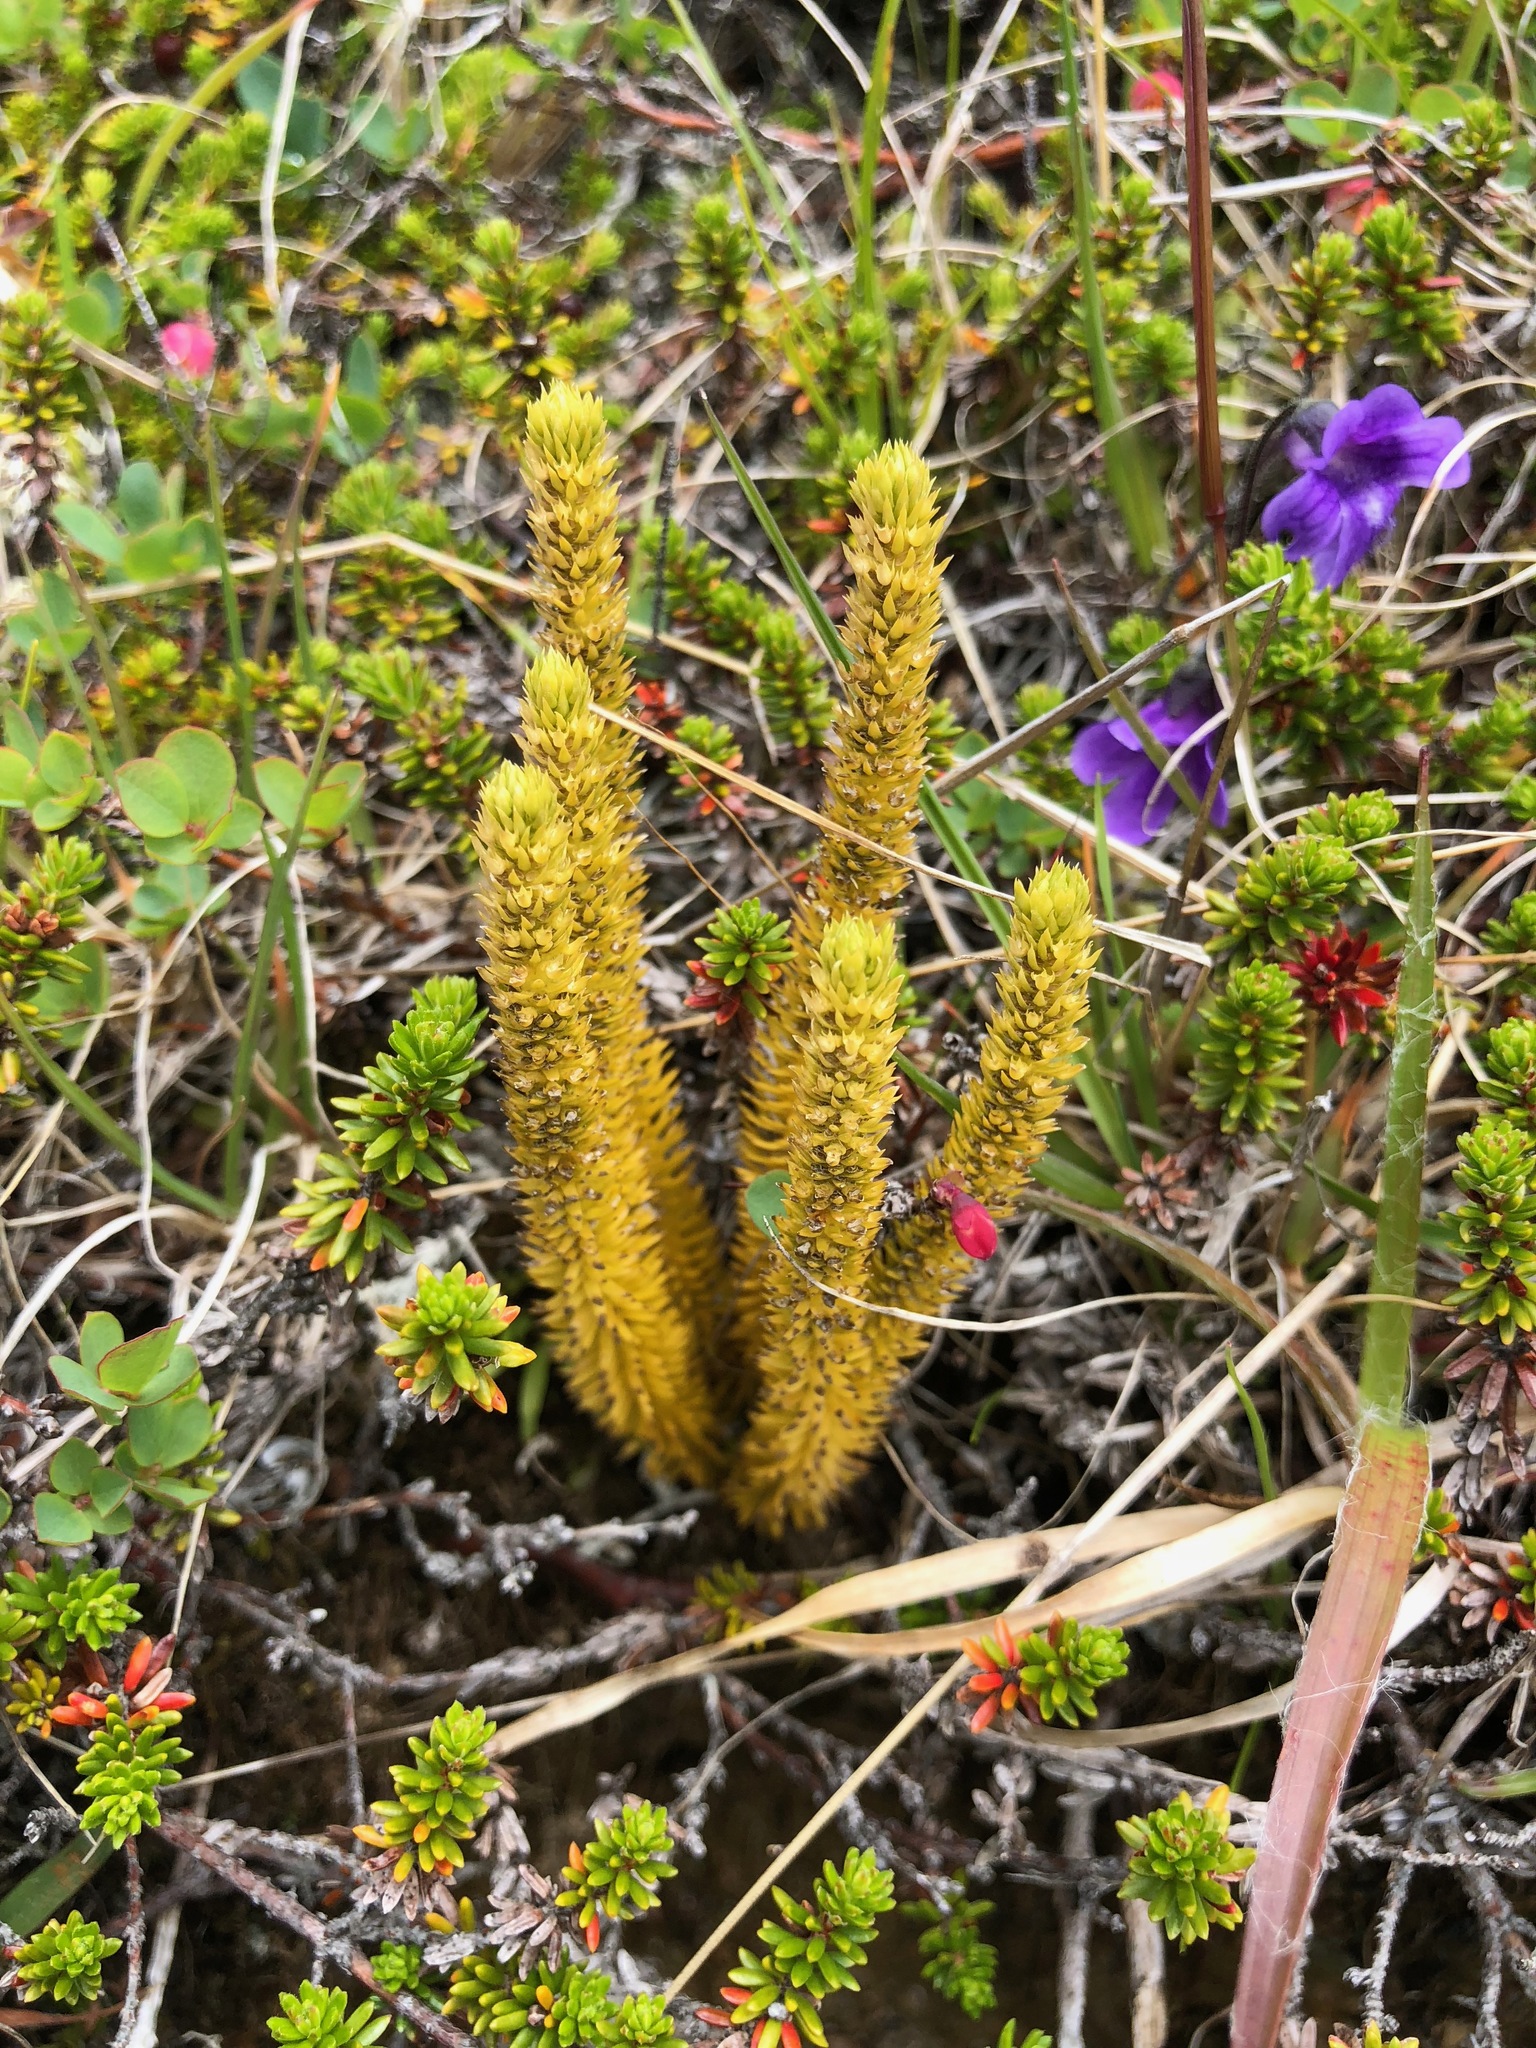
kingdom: Plantae
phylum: Tracheophyta
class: Lycopodiopsida
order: Lycopodiales
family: Lycopodiaceae
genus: Huperzia
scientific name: Huperzia continentalis
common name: Continental firmoss
